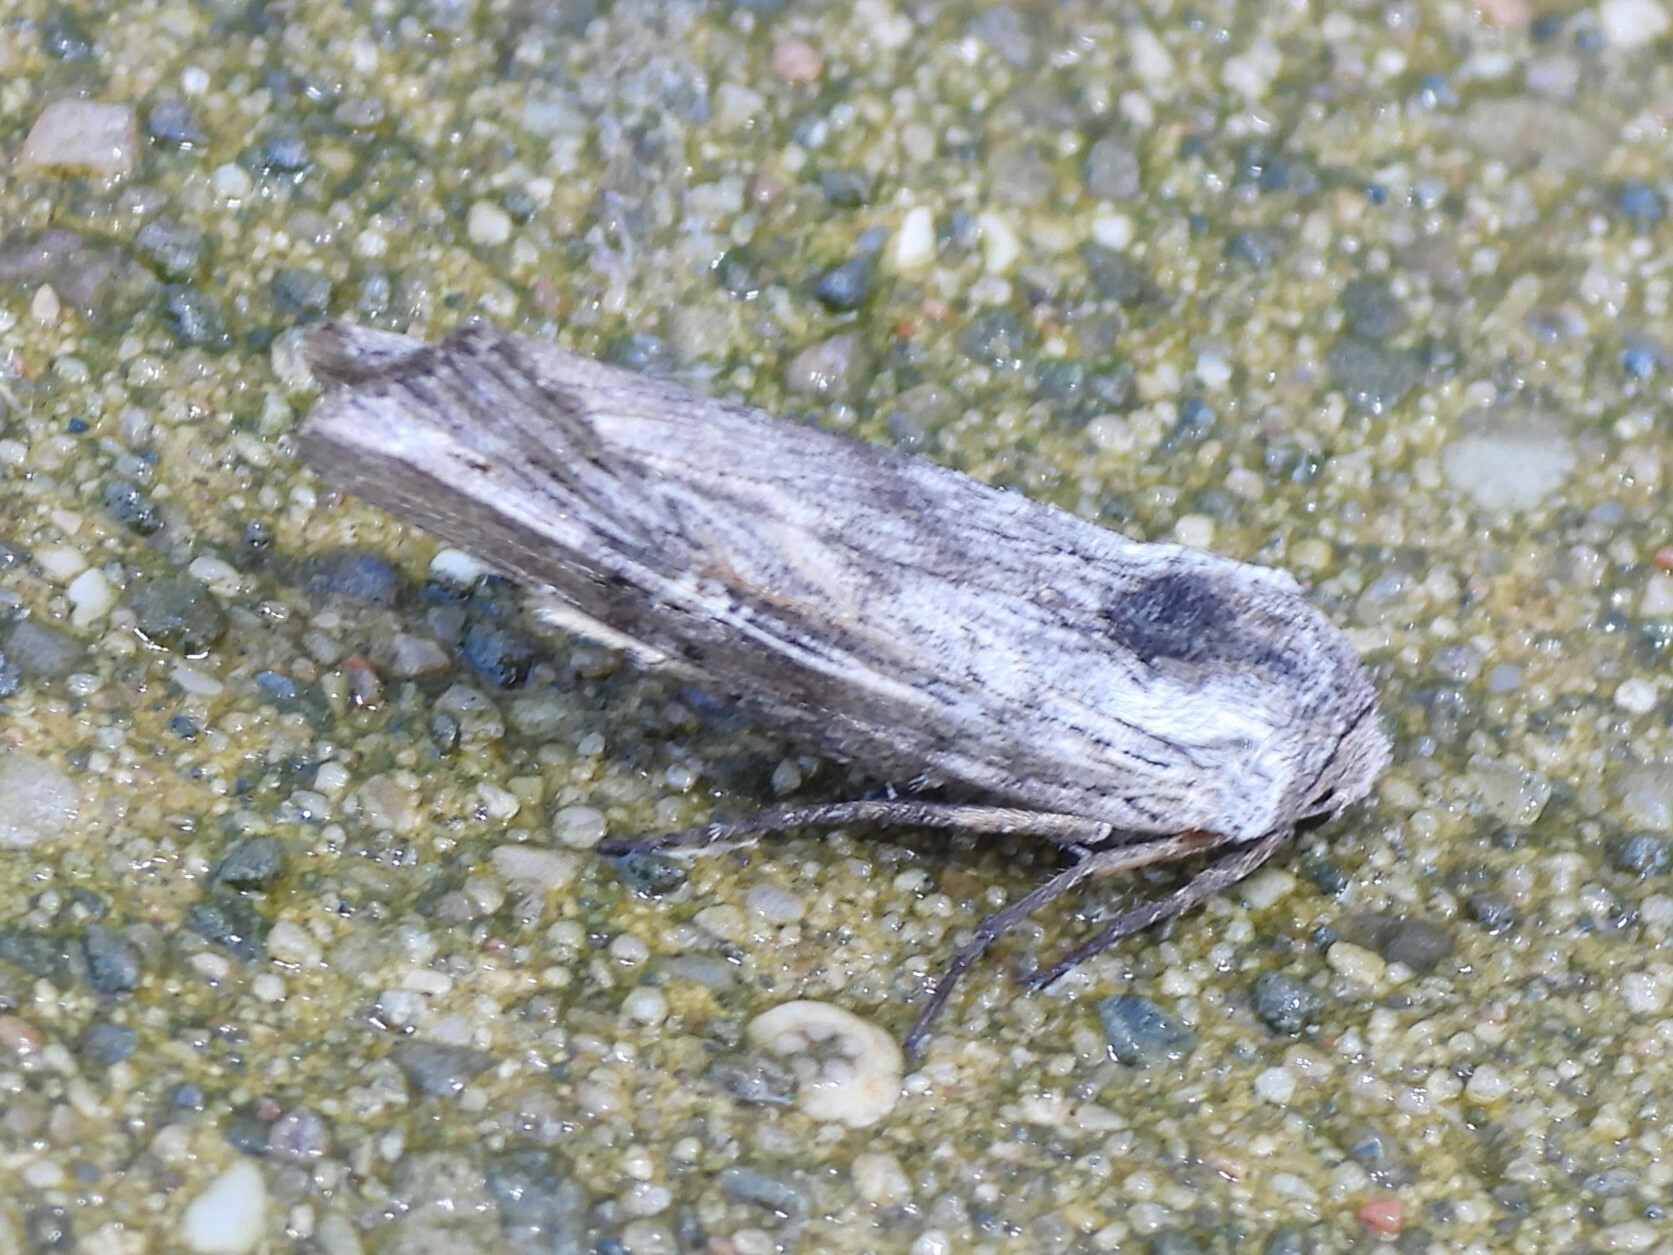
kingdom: Animalia
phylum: Arthropoda
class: Insecta
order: Lepidoptera
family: Noctuidae
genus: Xylena
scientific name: Xylena germana
